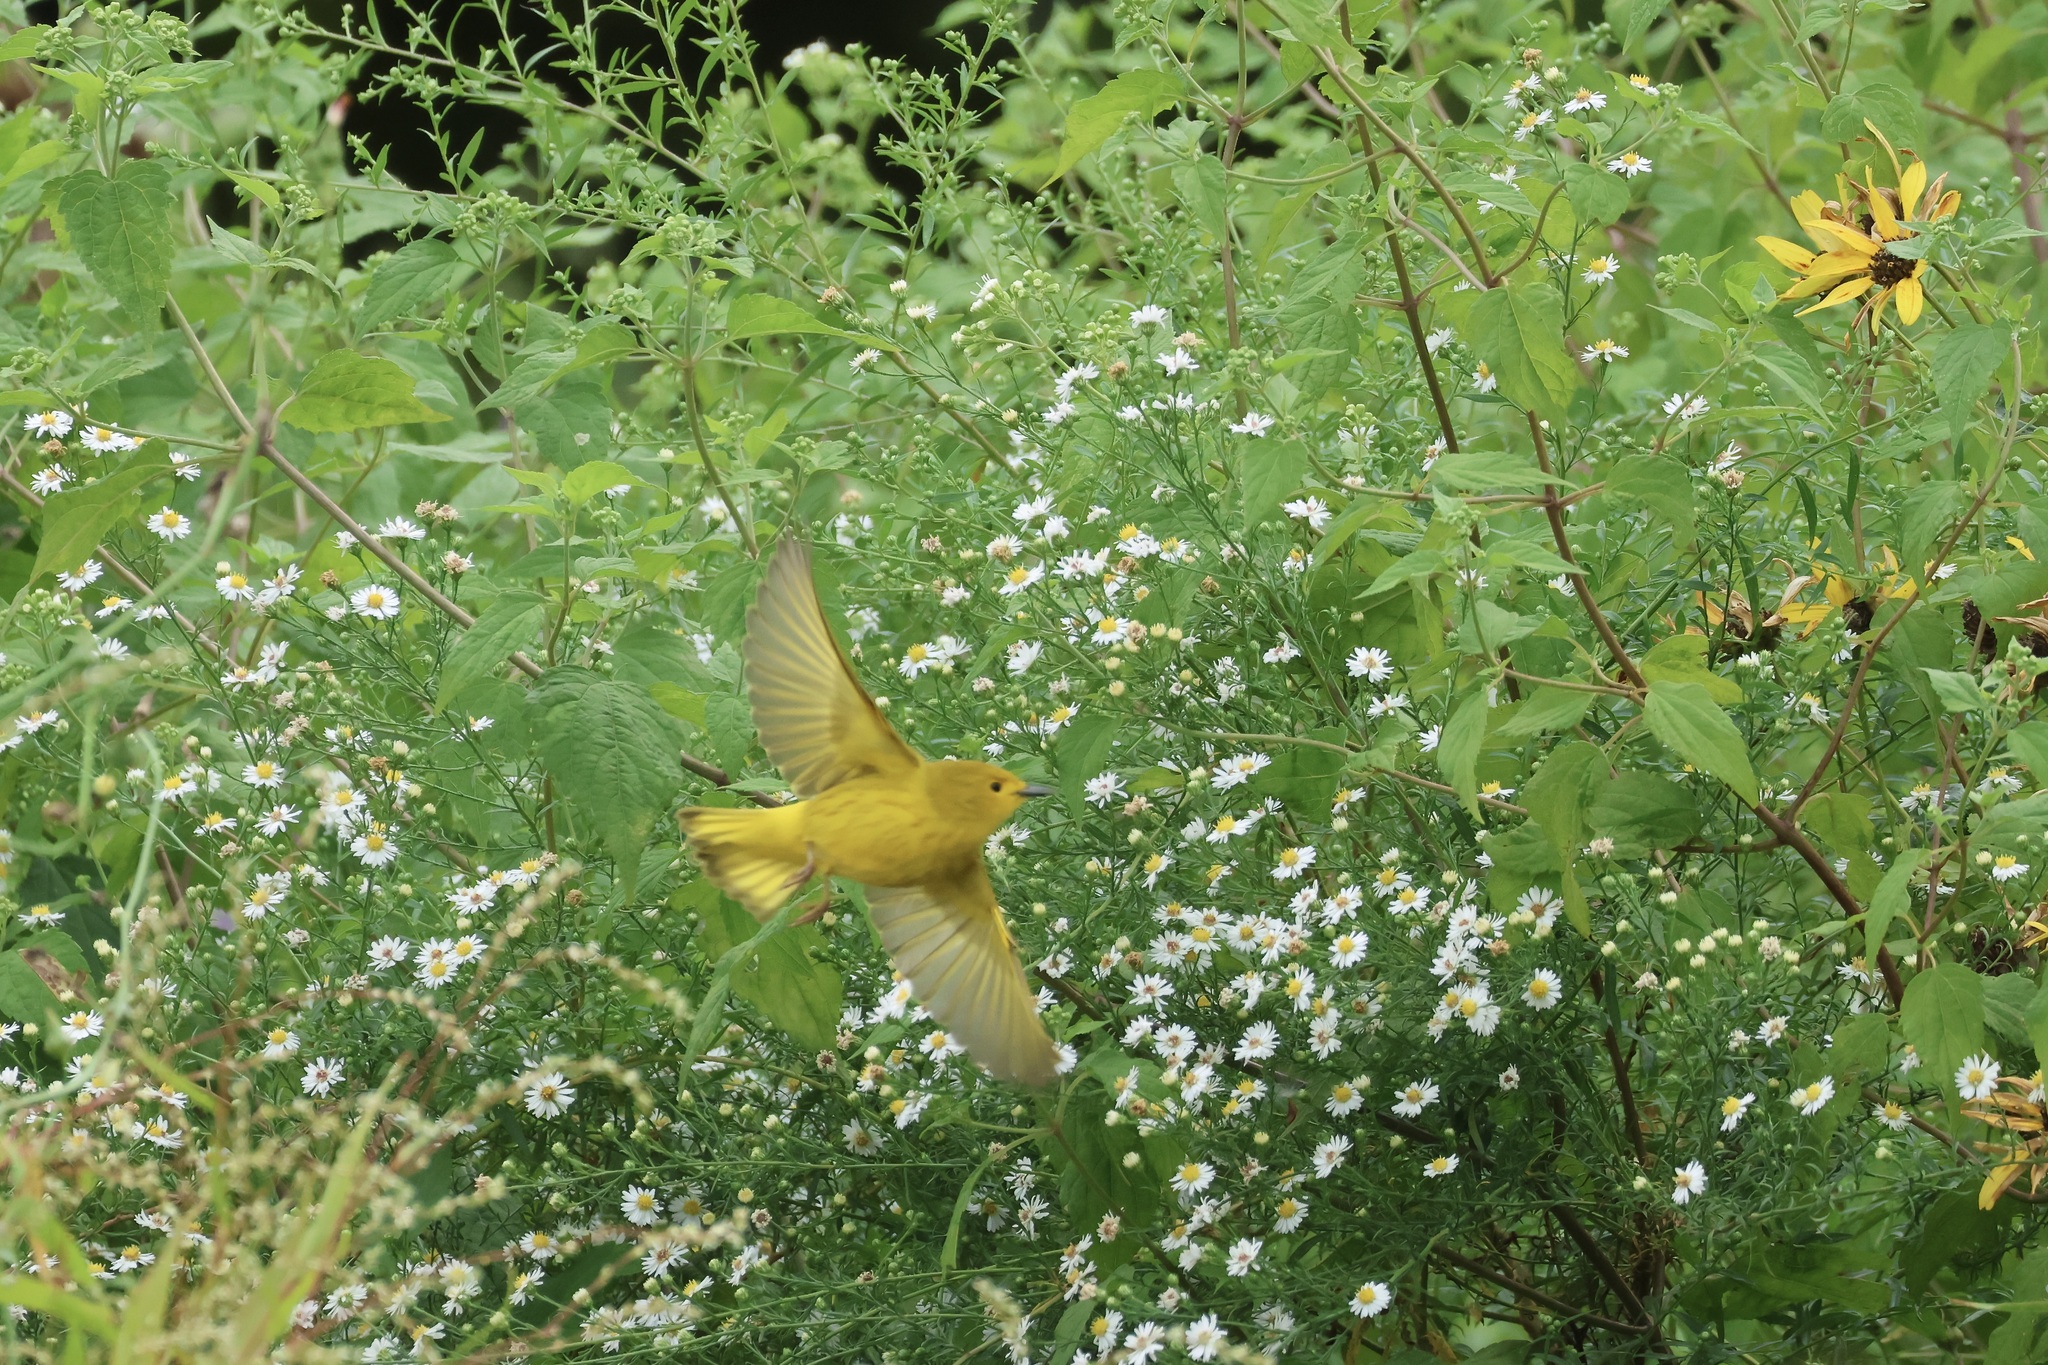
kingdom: Animalia
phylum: Chordata
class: Aves
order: Passeriformes
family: Parulidae
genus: Setophaga
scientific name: Setophaga petechia
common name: Yellow warbler
